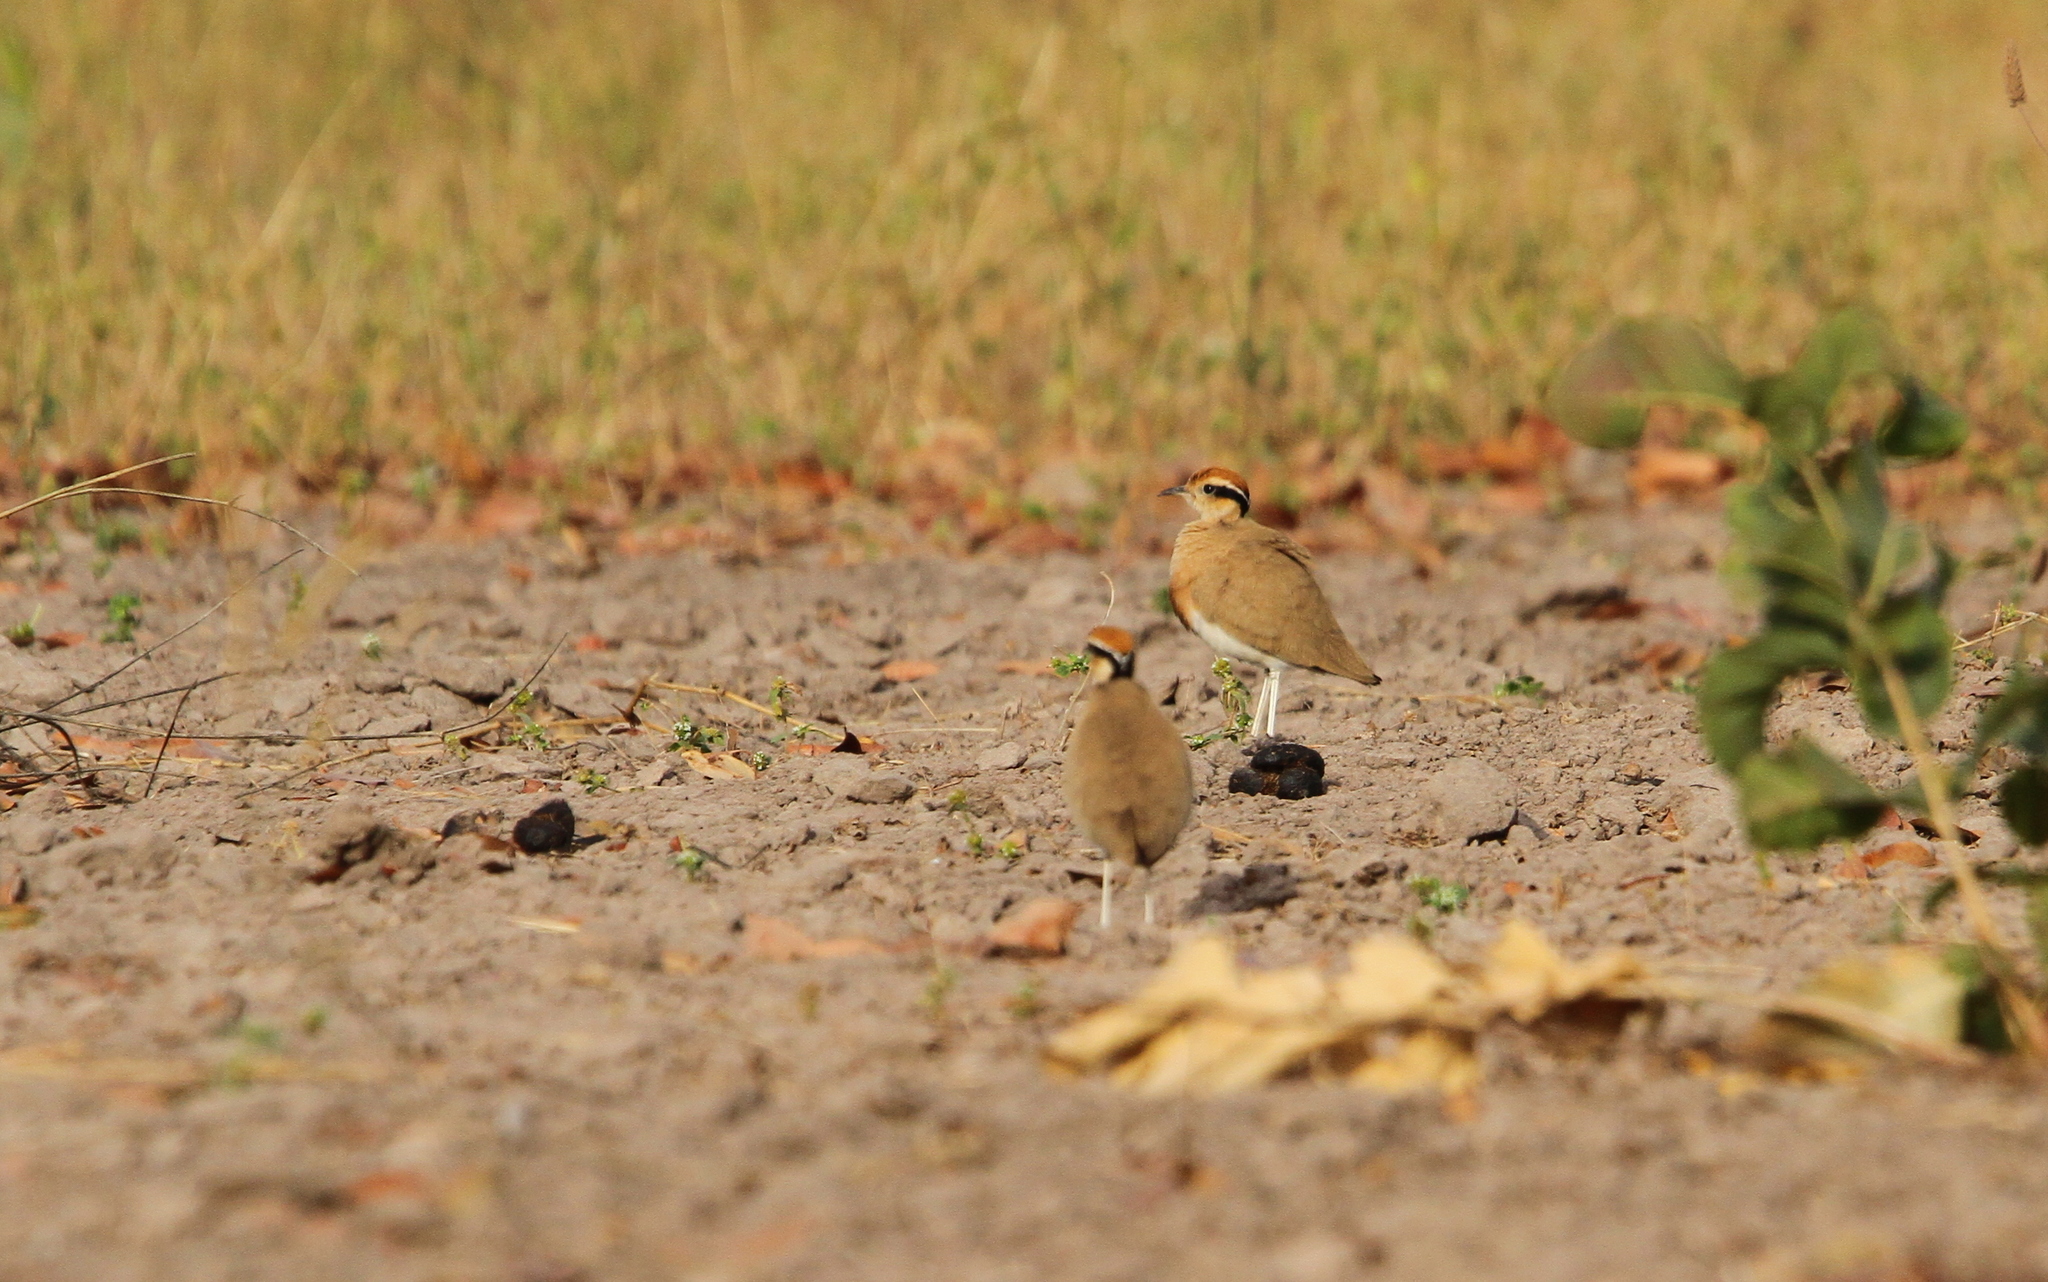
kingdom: Animalia
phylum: Chordata
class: Aves
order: Charadriiformes
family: Glareolidae
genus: Cursorius
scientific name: Cursorius temminckii
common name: Temminck's courser
